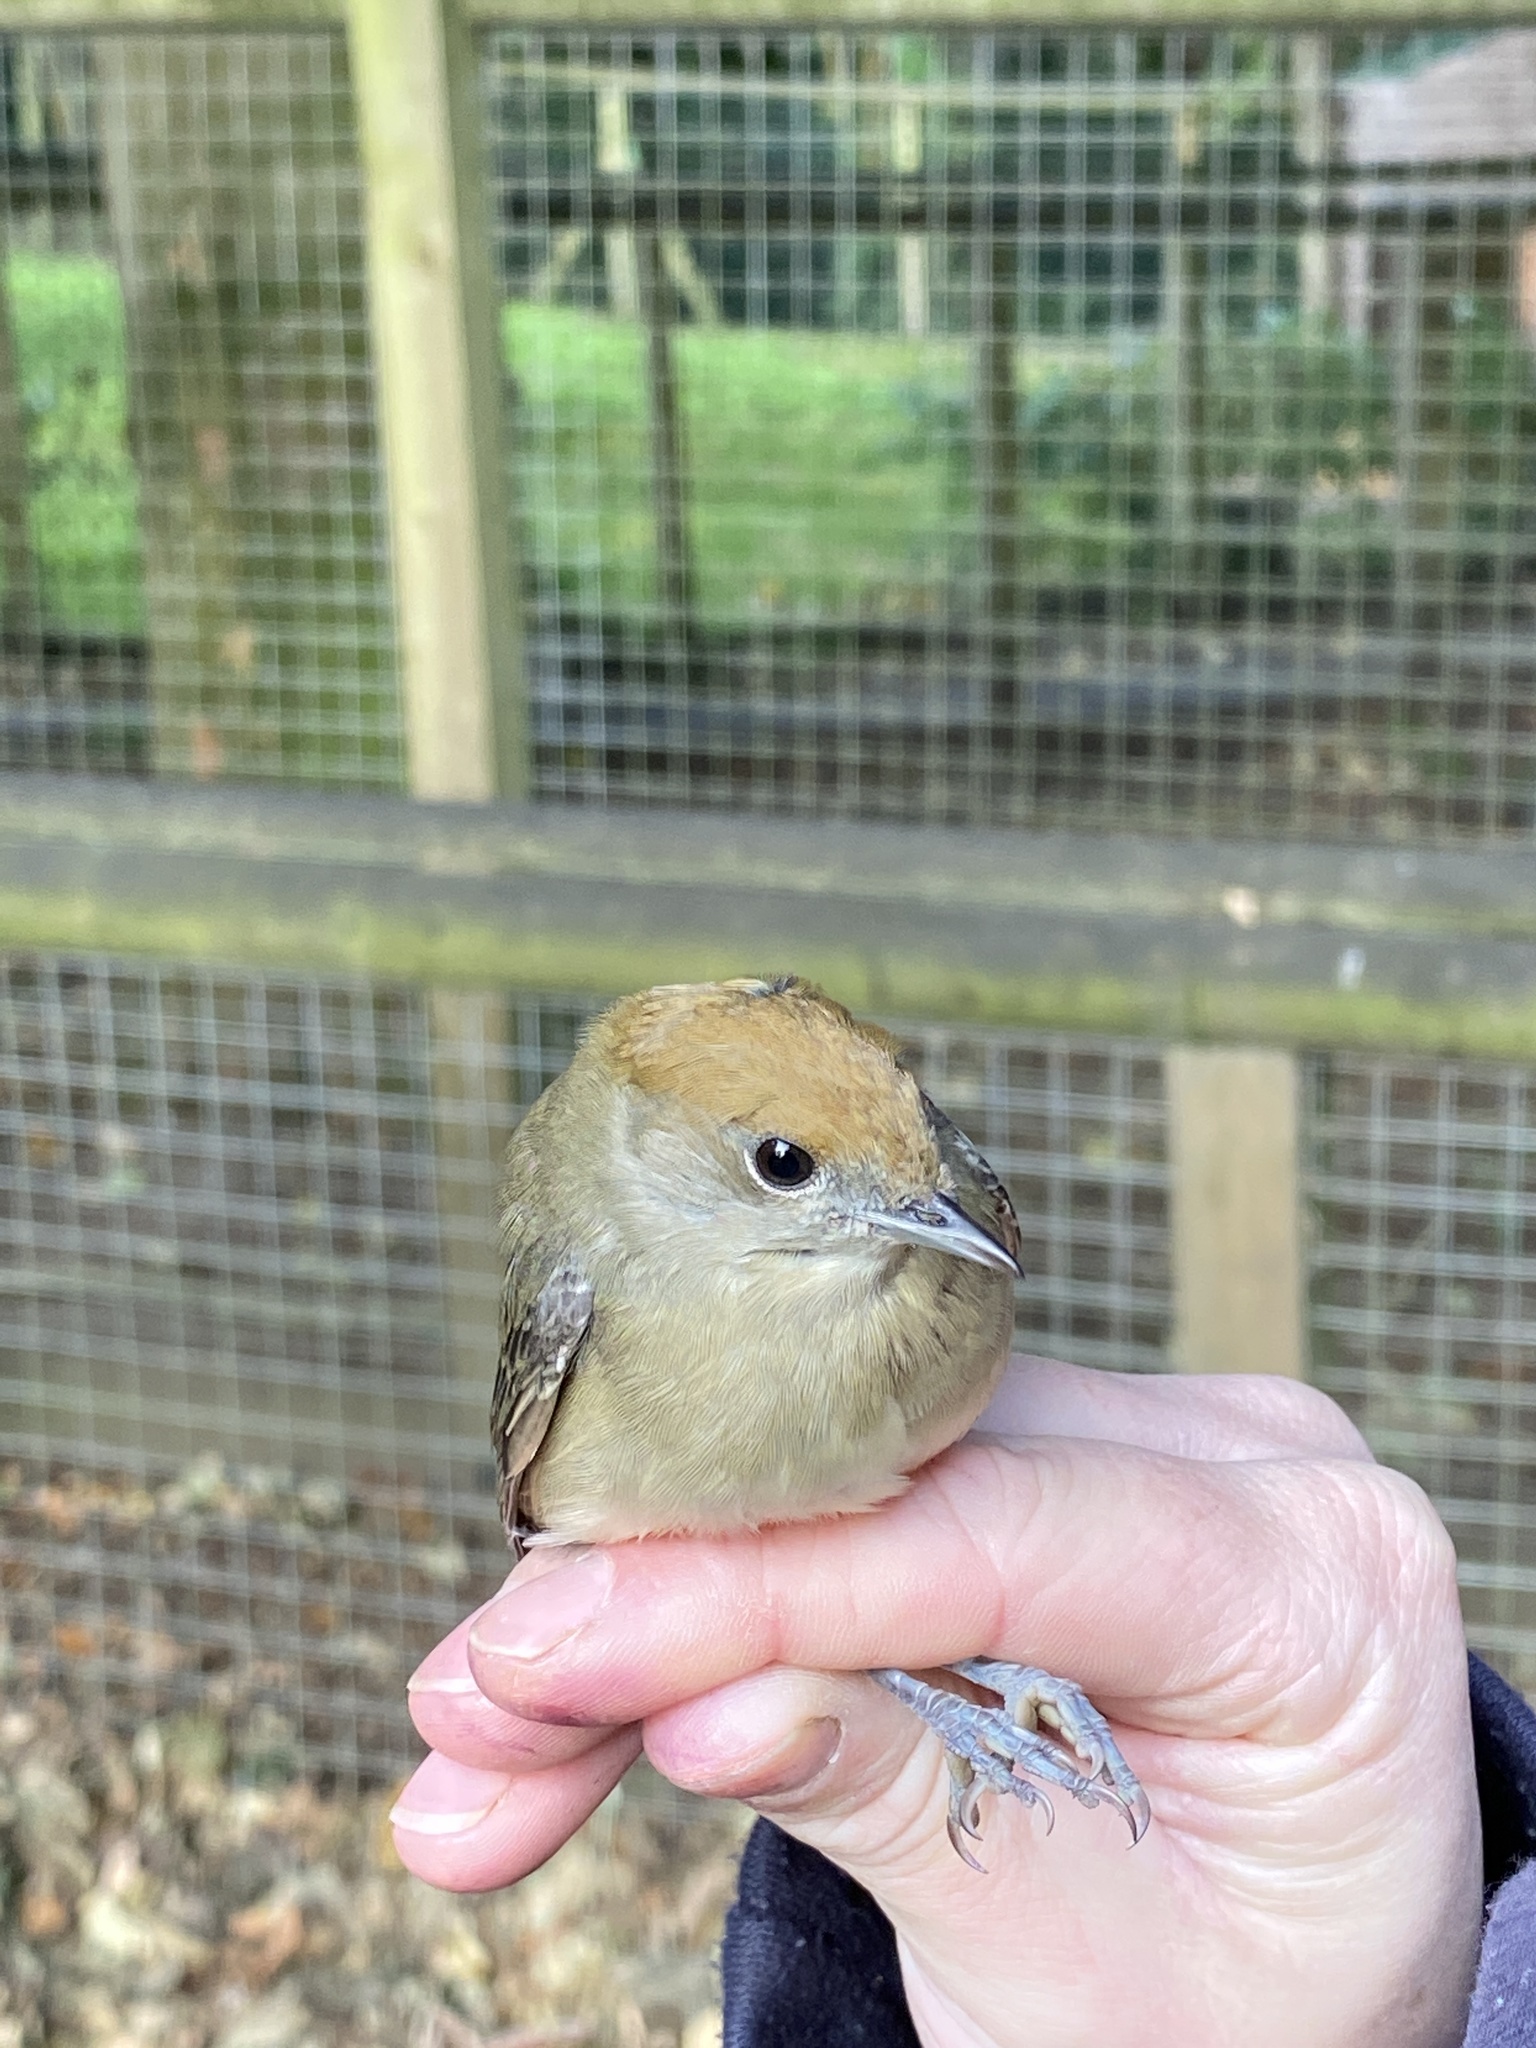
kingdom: Animalia
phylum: Chordata
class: Aves
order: Passeriformes
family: Sylviidae
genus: Sylvia
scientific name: Sylvia atricapilla
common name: Eurasian blackcap
